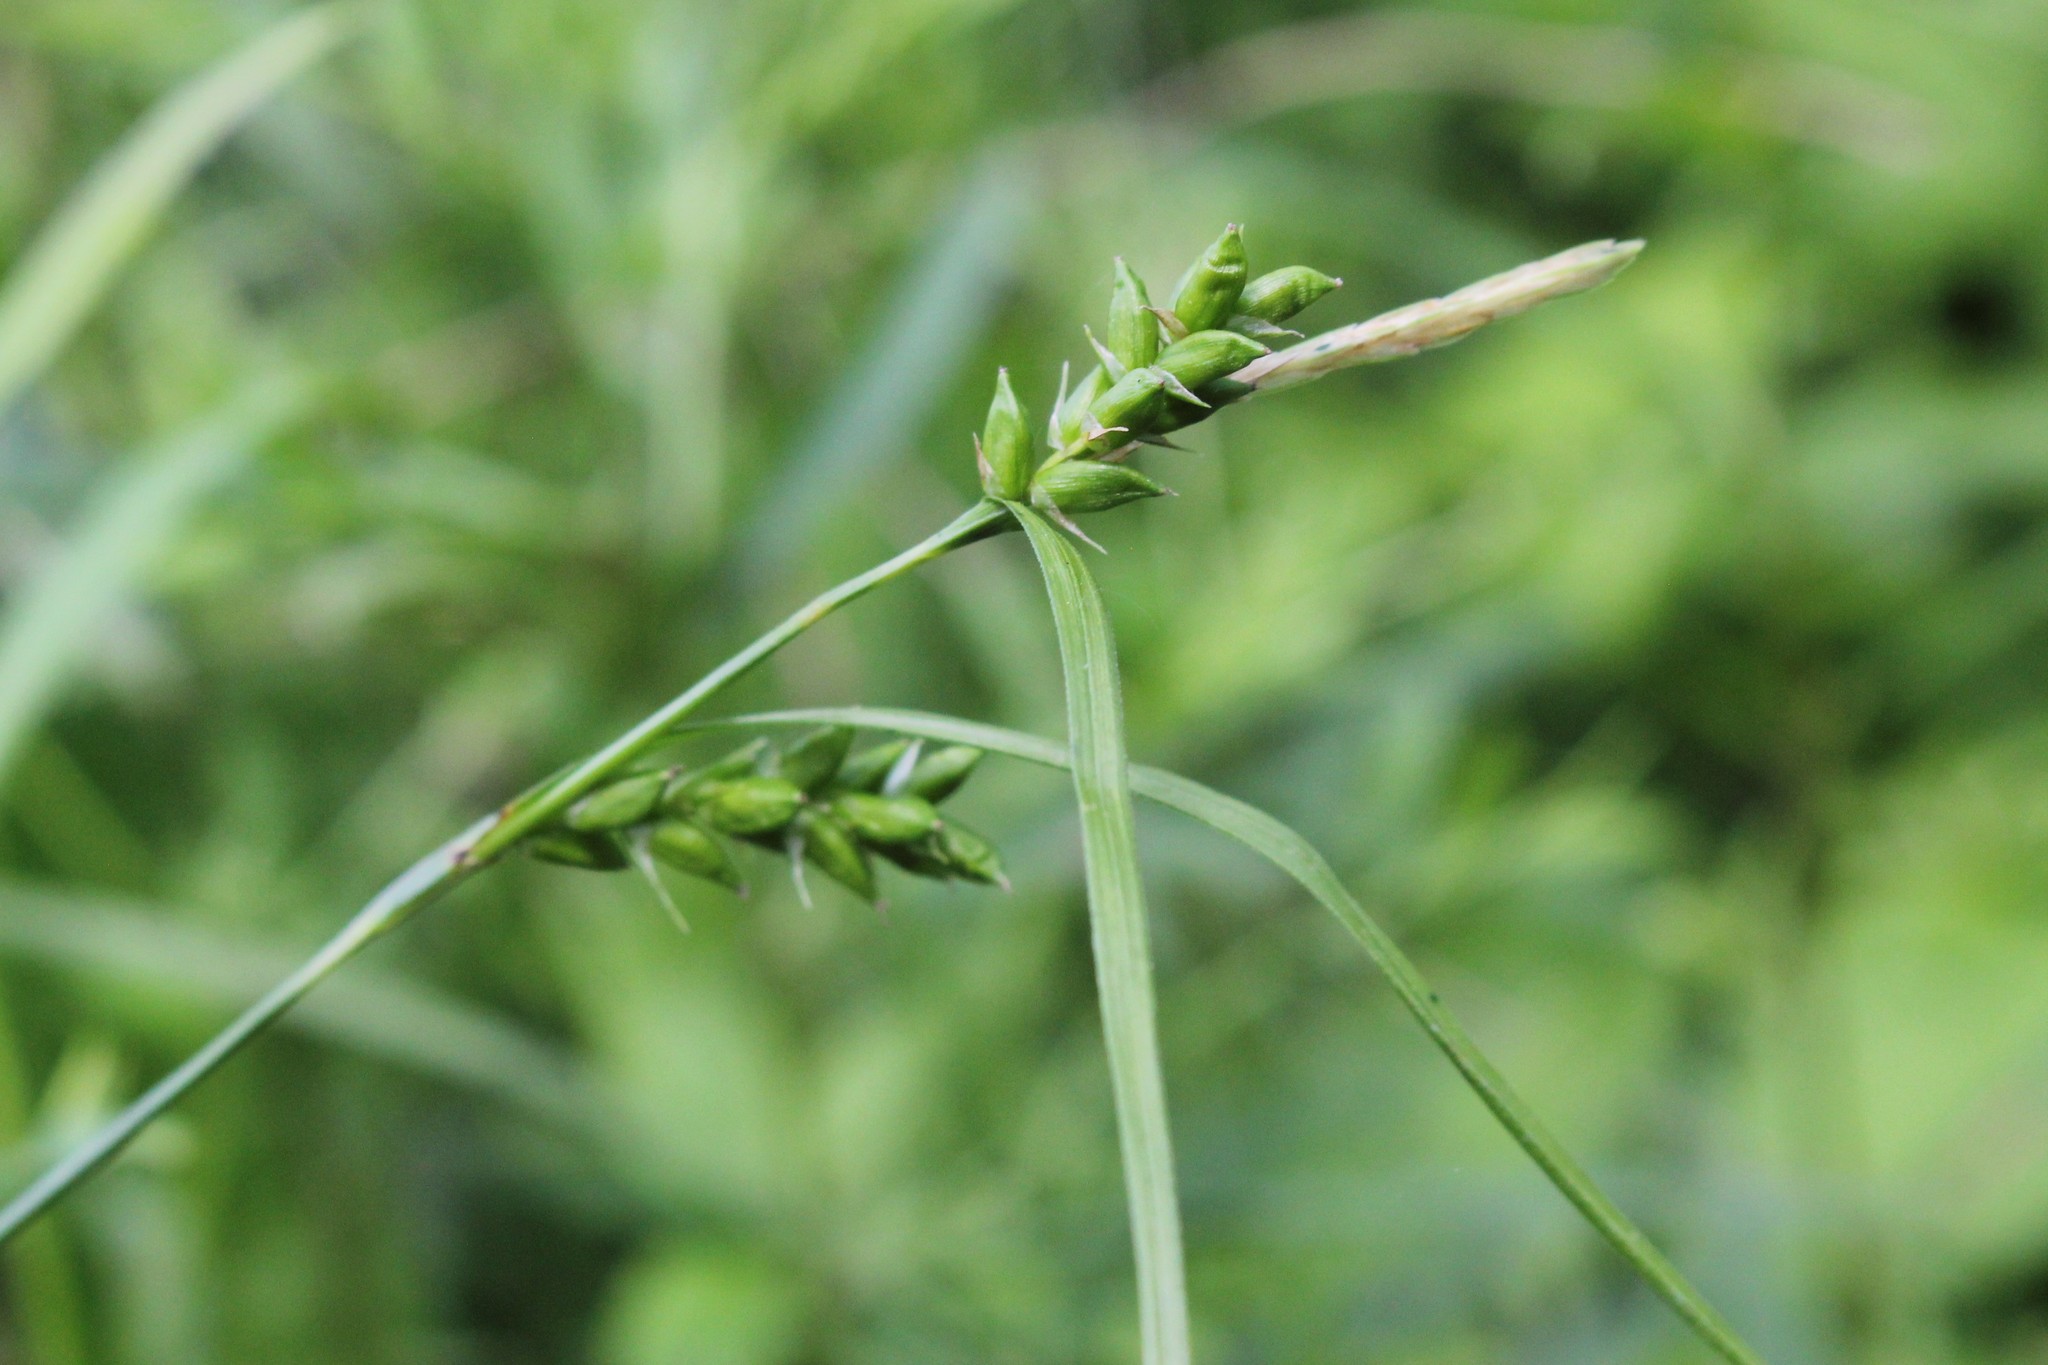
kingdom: Plantae
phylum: Tracheophyta
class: Liliopsida
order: Poales
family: Cyperaceae
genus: Carex
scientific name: Carex amphibola
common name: Amphibious sedge
